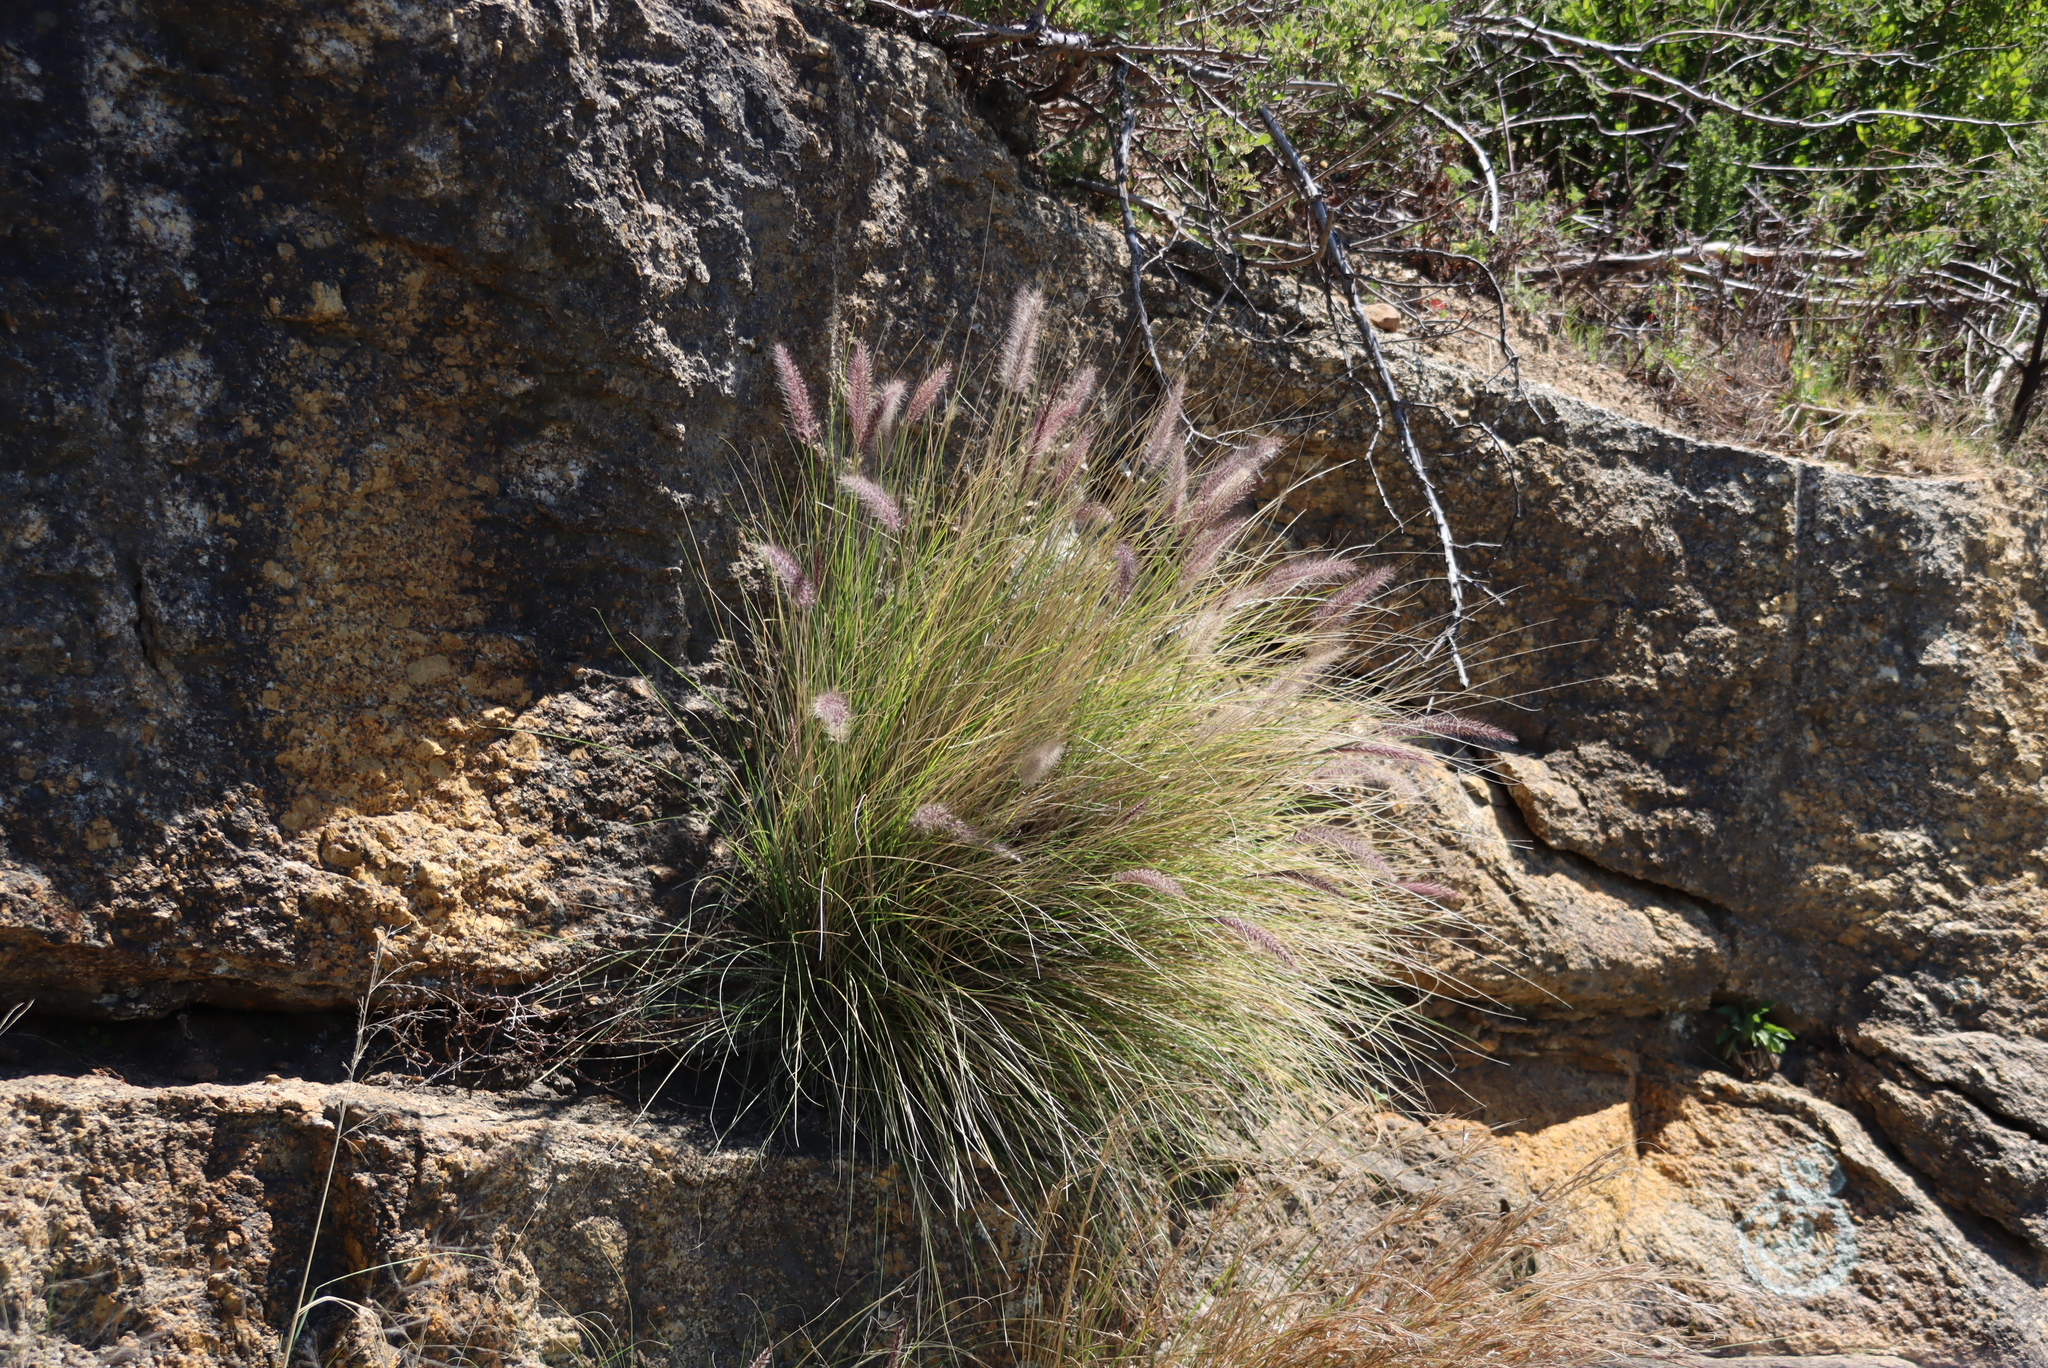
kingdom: Plantae
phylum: Tracheophyta
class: Liliopsida
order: Poales
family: Poaceae
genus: Cenchrus
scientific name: Cenchrus setaceus
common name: Crimson fountaingrass
